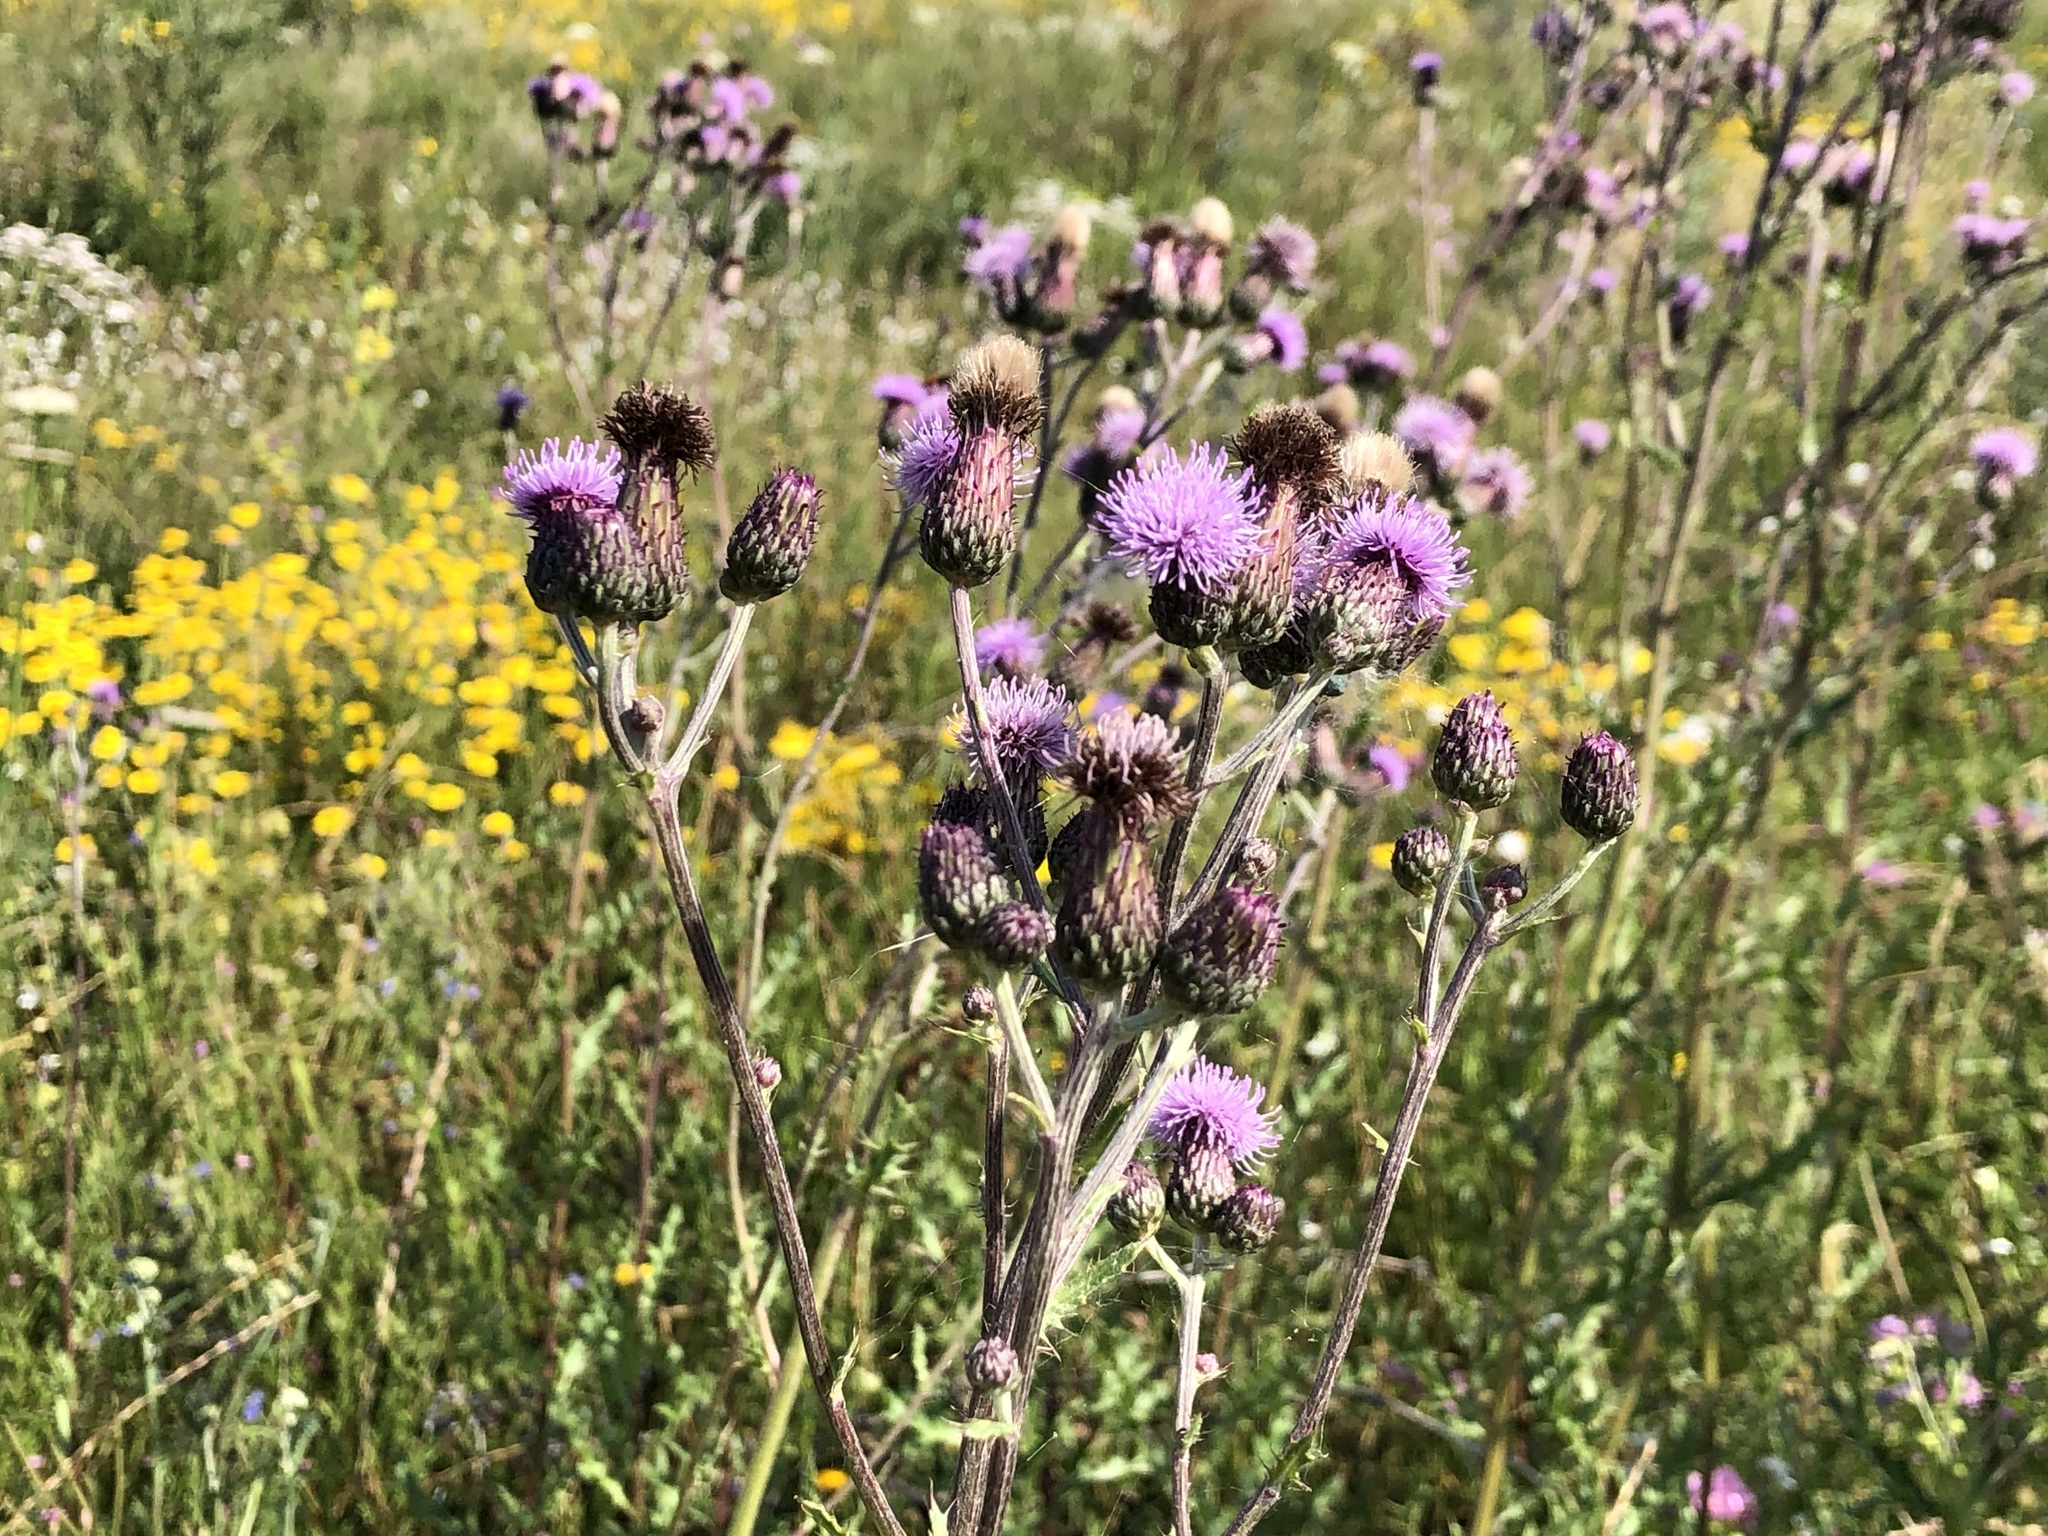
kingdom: Plantae
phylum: Tracheophyta
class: Magnoliopsida
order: Asterales
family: Asteraceae
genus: Cirsium
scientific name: Cirsium arvense
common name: Creeping thistle
